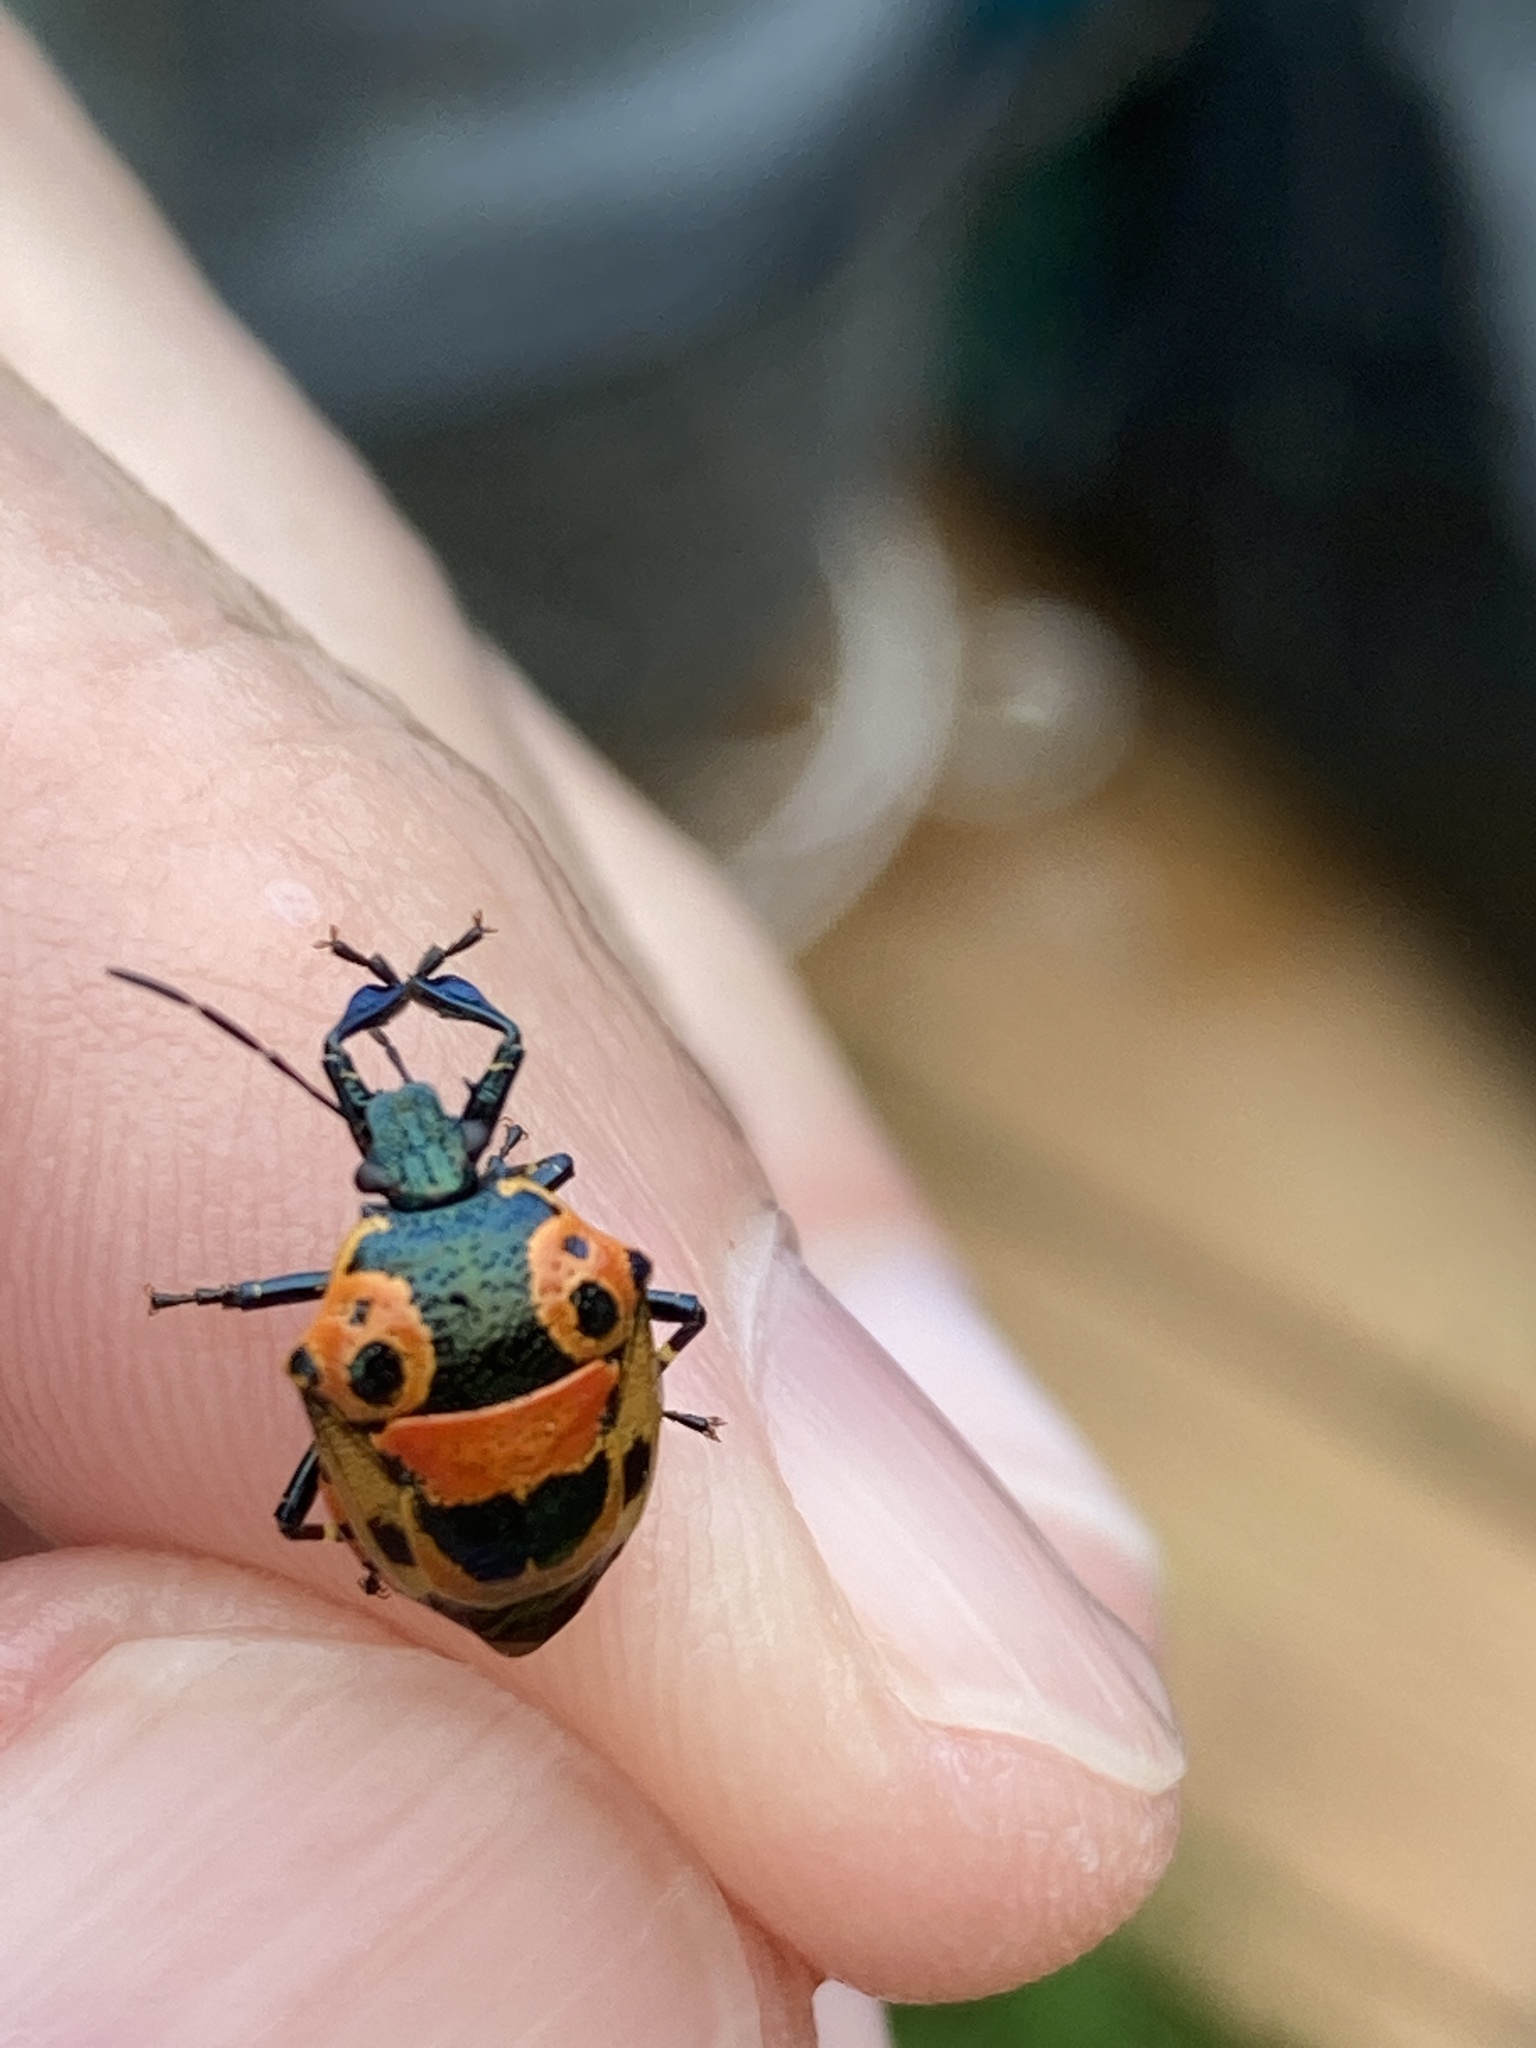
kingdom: Animalia
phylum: Arthropoda
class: Insecta
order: Hemiptera
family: Pentatomidae
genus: Stiretrus
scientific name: Stiretrus anchorago
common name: Anchor stink bug
